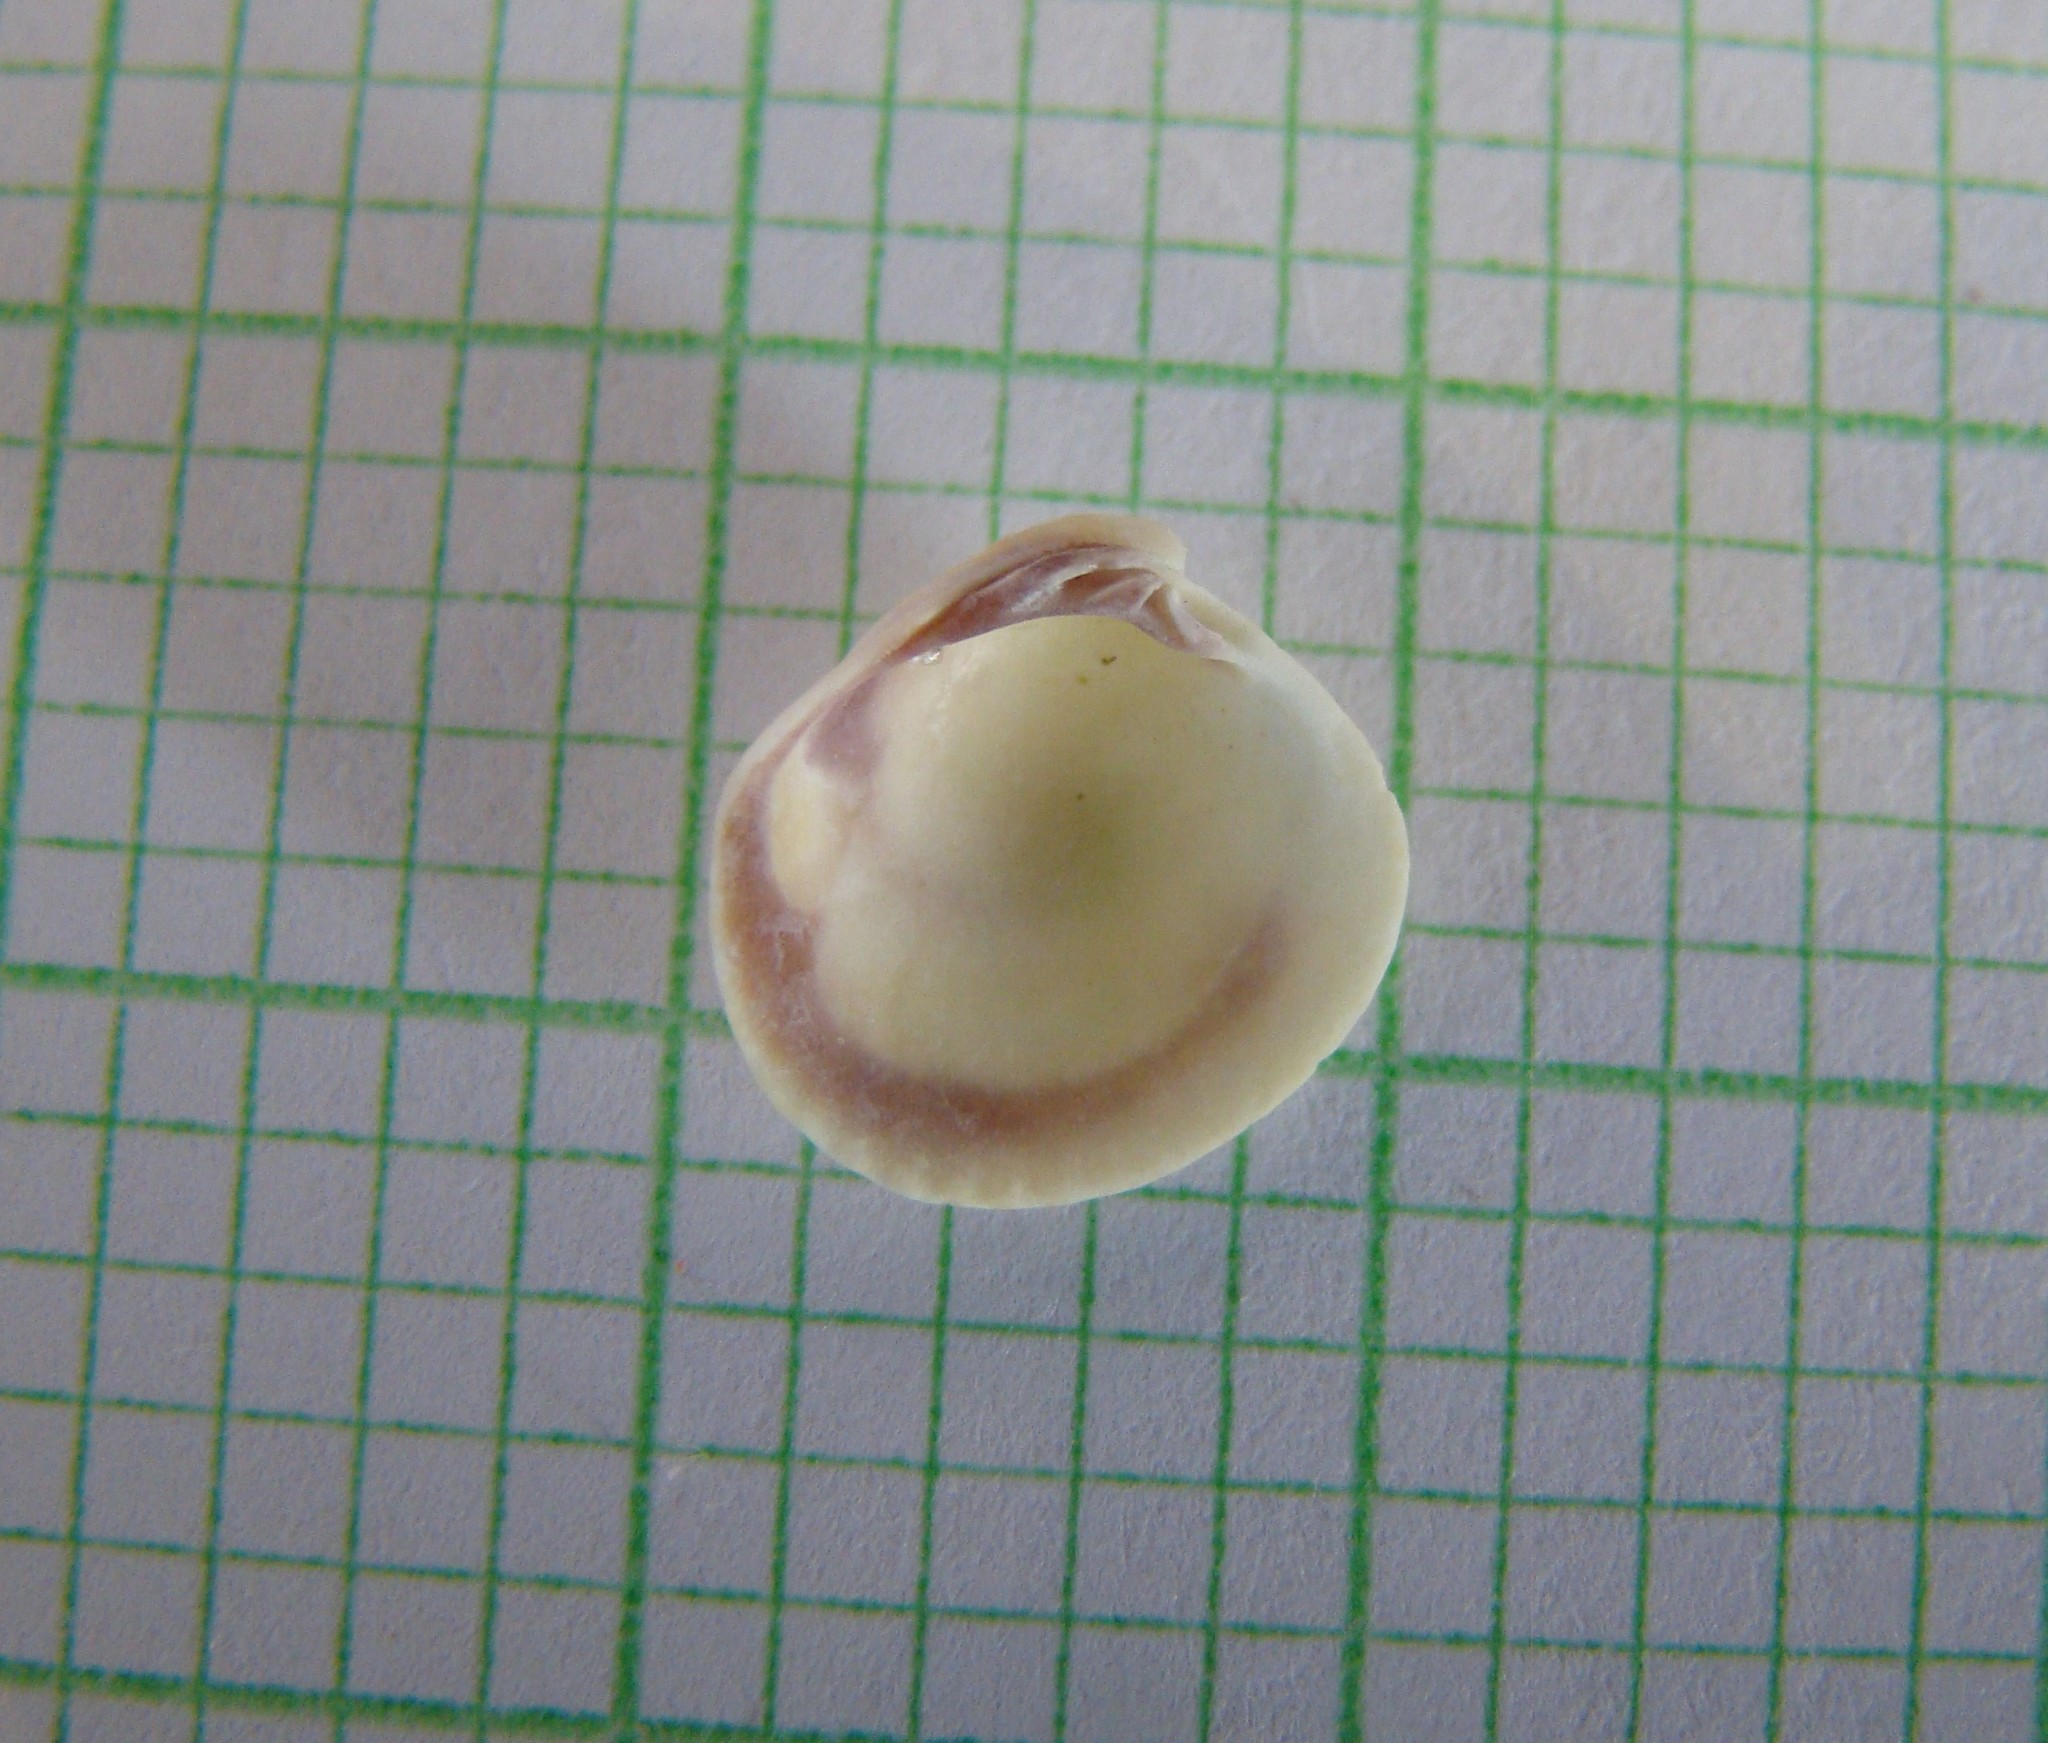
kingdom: Animalia
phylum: Mollusca
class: Bivalvia
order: Venerida
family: Veneridae
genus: Austrovenus
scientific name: Austrovenus stutchburyi
